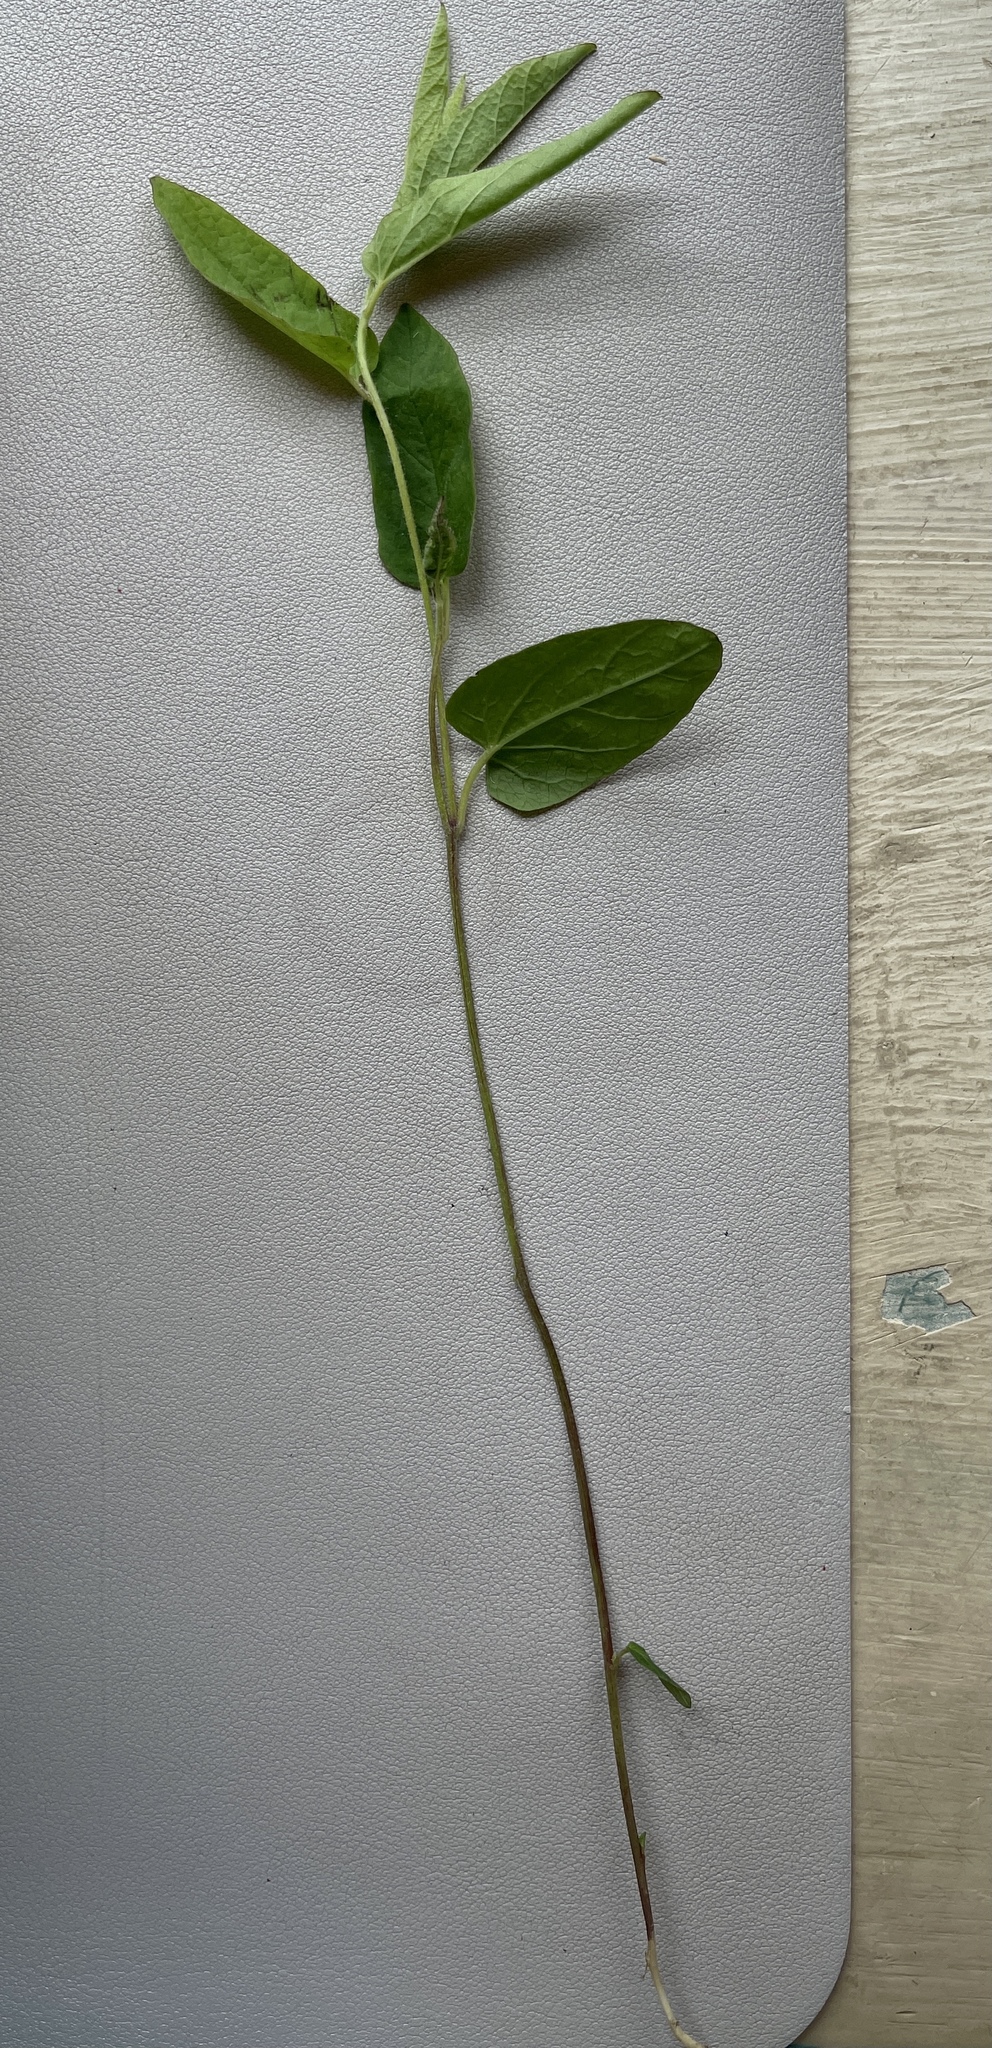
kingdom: Plantae
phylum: Tracheophyta
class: Magnoliopsida
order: Solanales
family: Convolvulaceae
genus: Calystegia
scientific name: Calystegia spithamaea
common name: Dwarf bindweed
